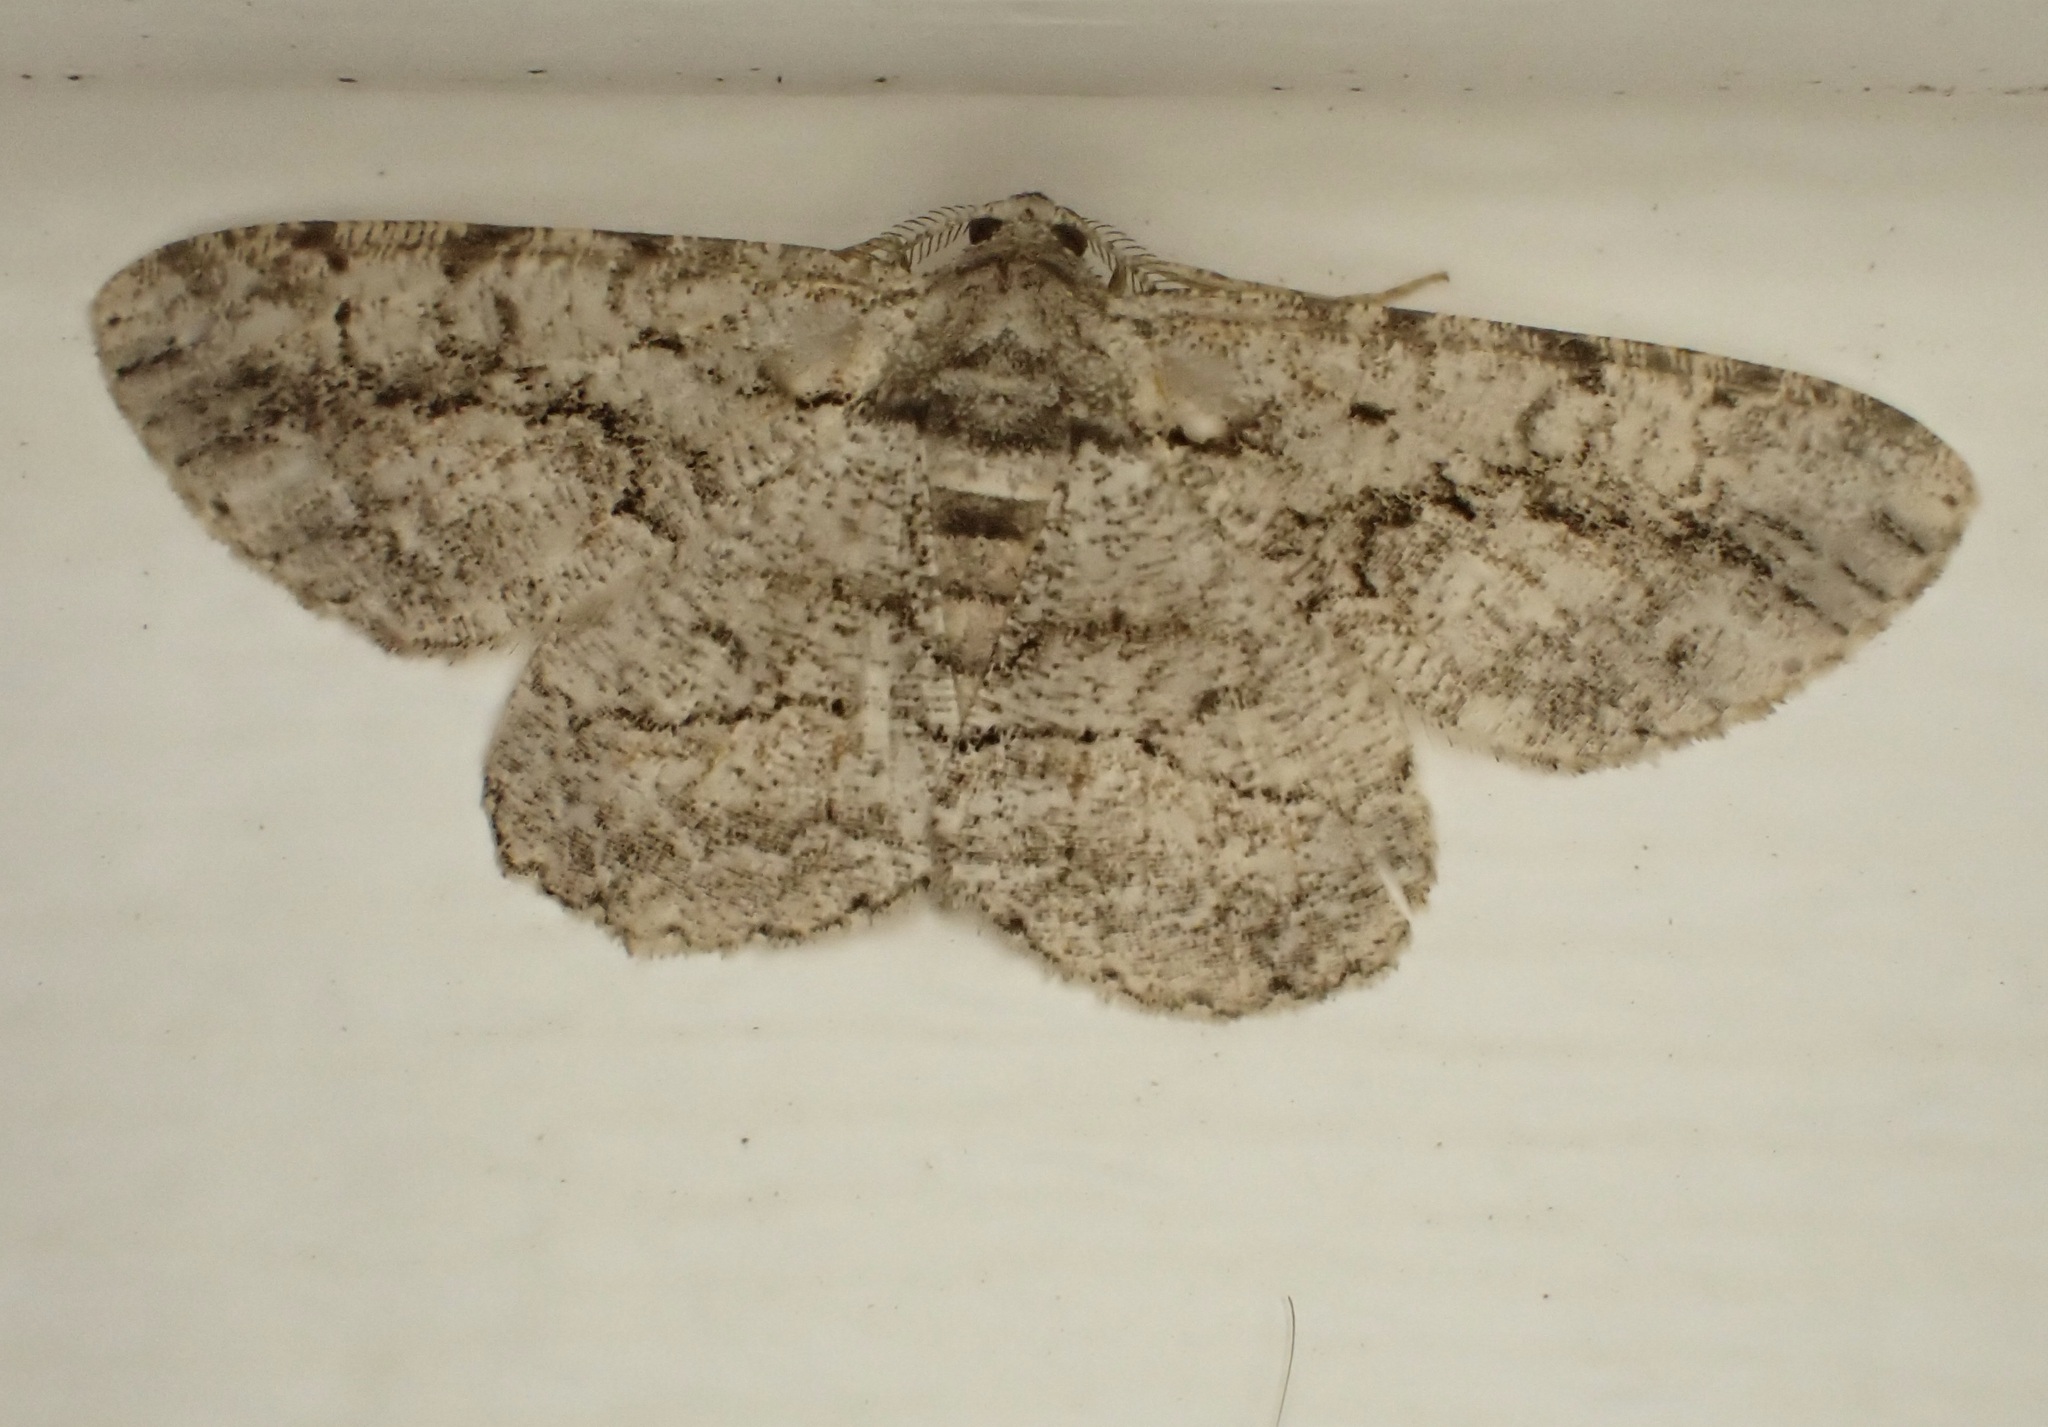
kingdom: Animalia
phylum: Arthropoda
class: Insecta
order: Lepidoptera
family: Geometridae
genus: Anavitrinella
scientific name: Anavitrinella pampinaria
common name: Common gray
